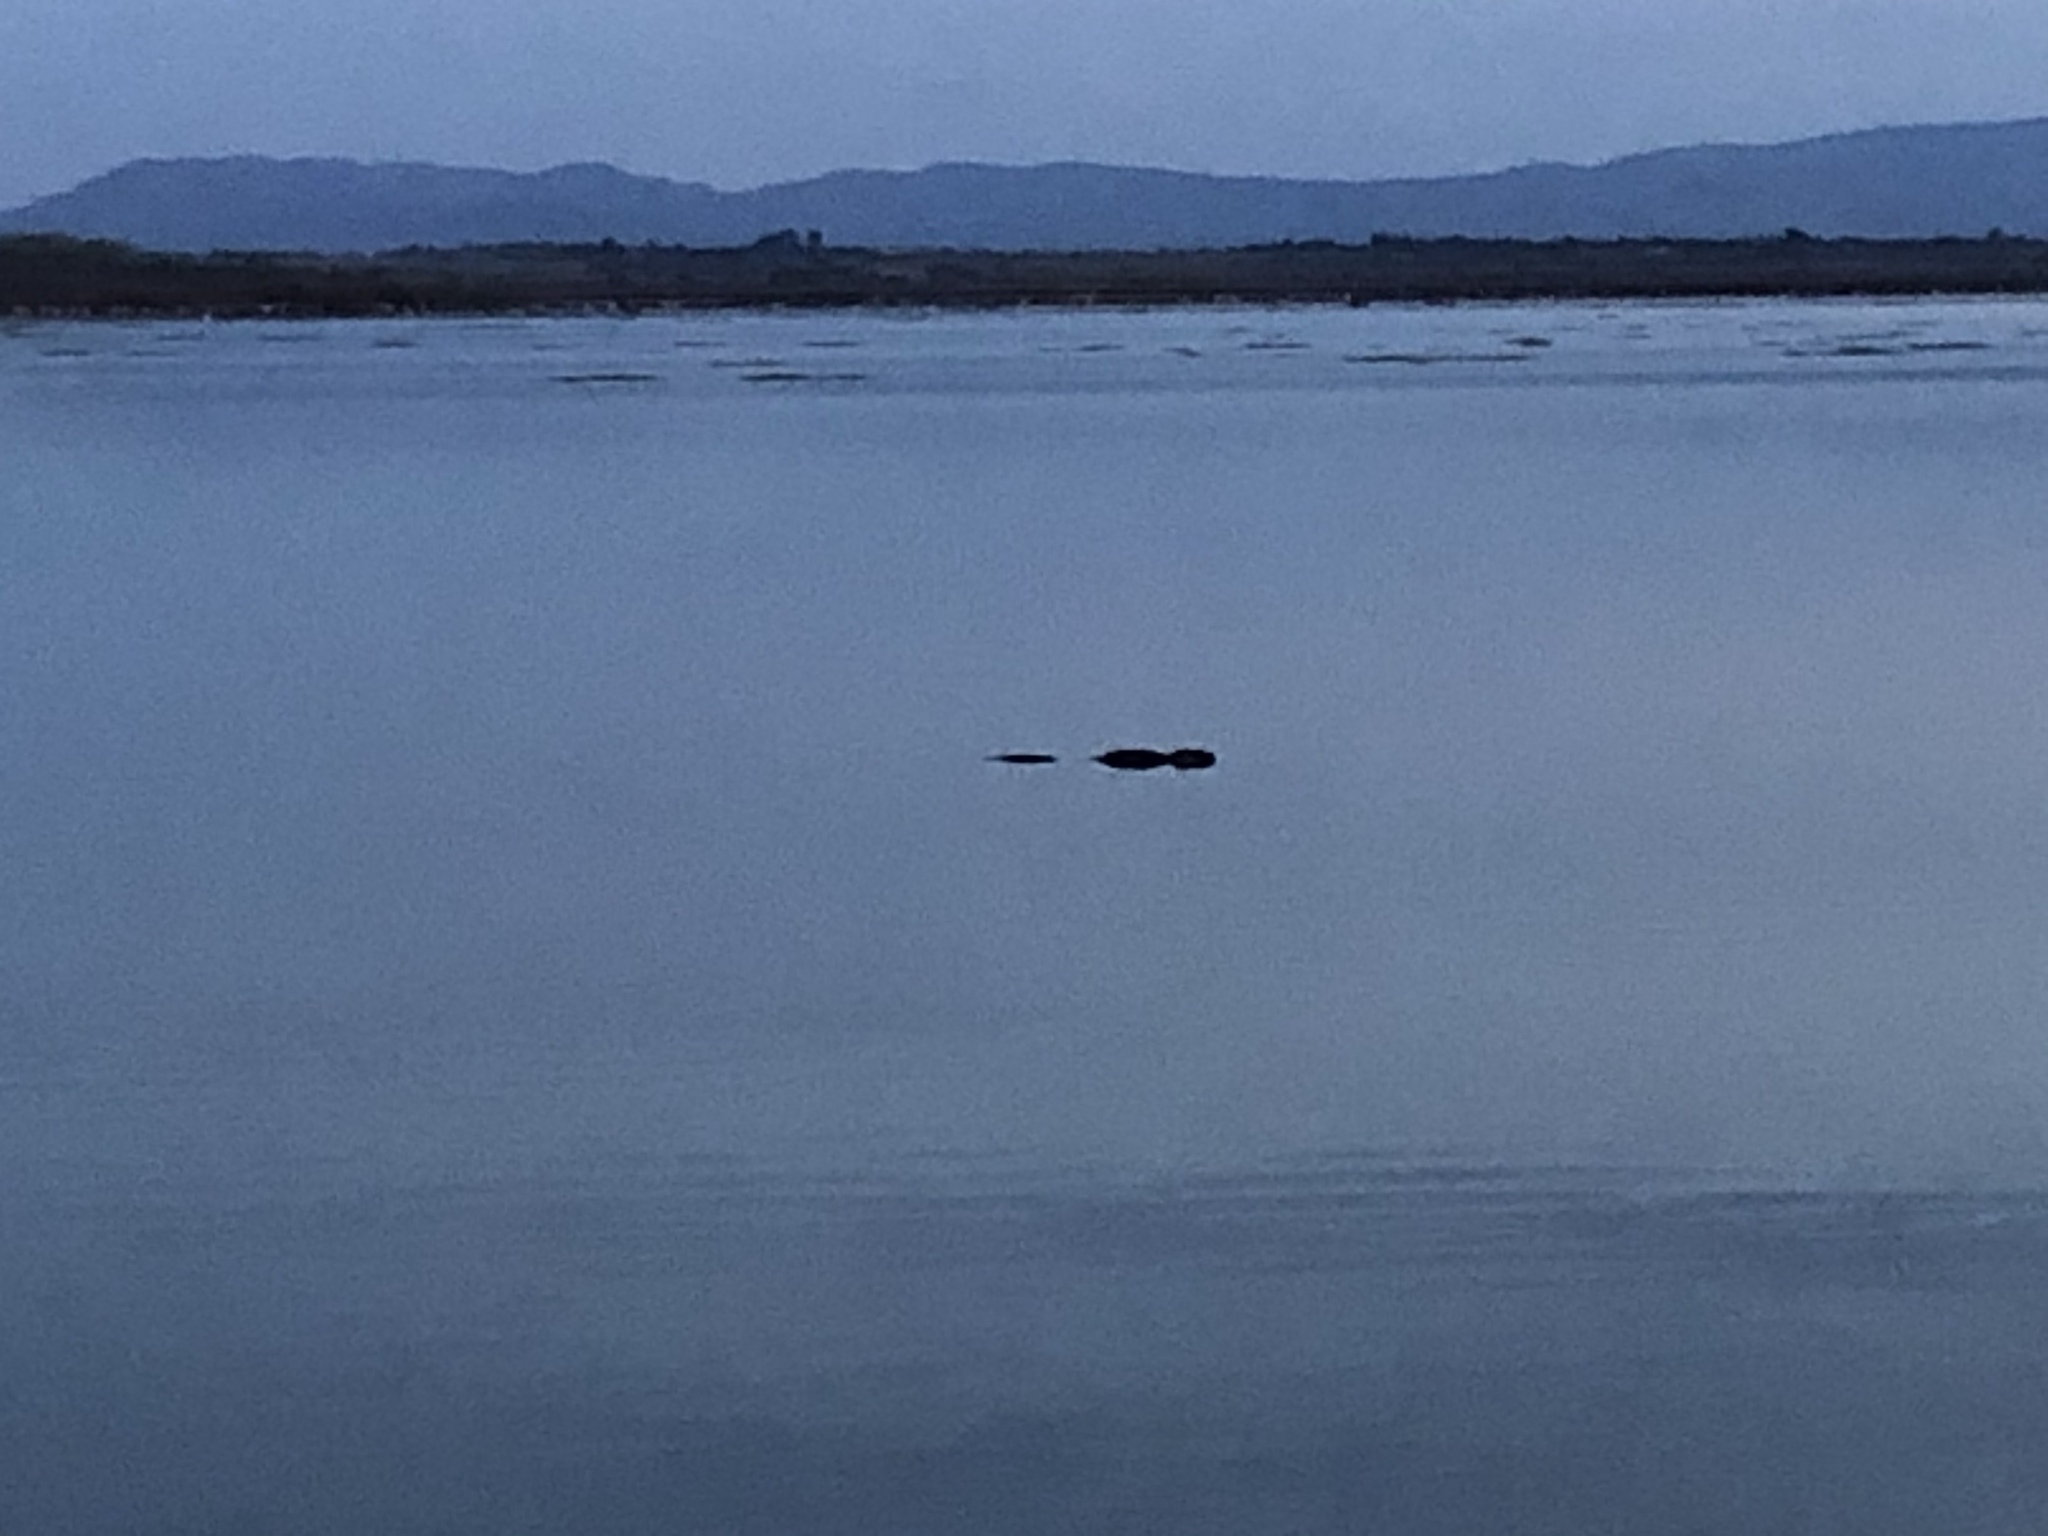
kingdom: Animalia
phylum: Chordata
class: Mammalia
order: Rodentia
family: Myocastoridae
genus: Myocastor
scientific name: Myocastor coypus
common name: Coypu
